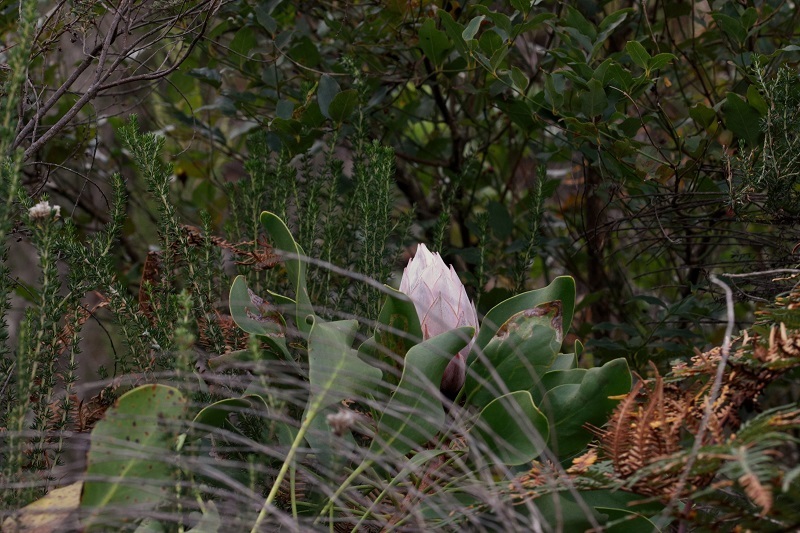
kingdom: Plantae
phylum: Tracheophyta
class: Magnoliopsida
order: Proteales
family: Proteaceae
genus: Protea
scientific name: Protea cynaroides
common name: King protea
